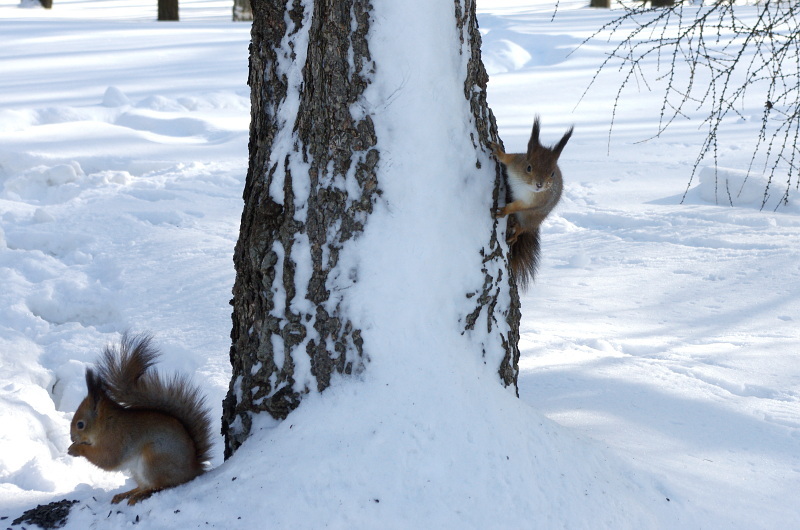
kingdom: Animalia
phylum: Chordata
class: Mammalia
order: Rodentia
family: Sciuridae
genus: Sciurus
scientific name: Sciurus vulgaris
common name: Eurasian red squirrel
